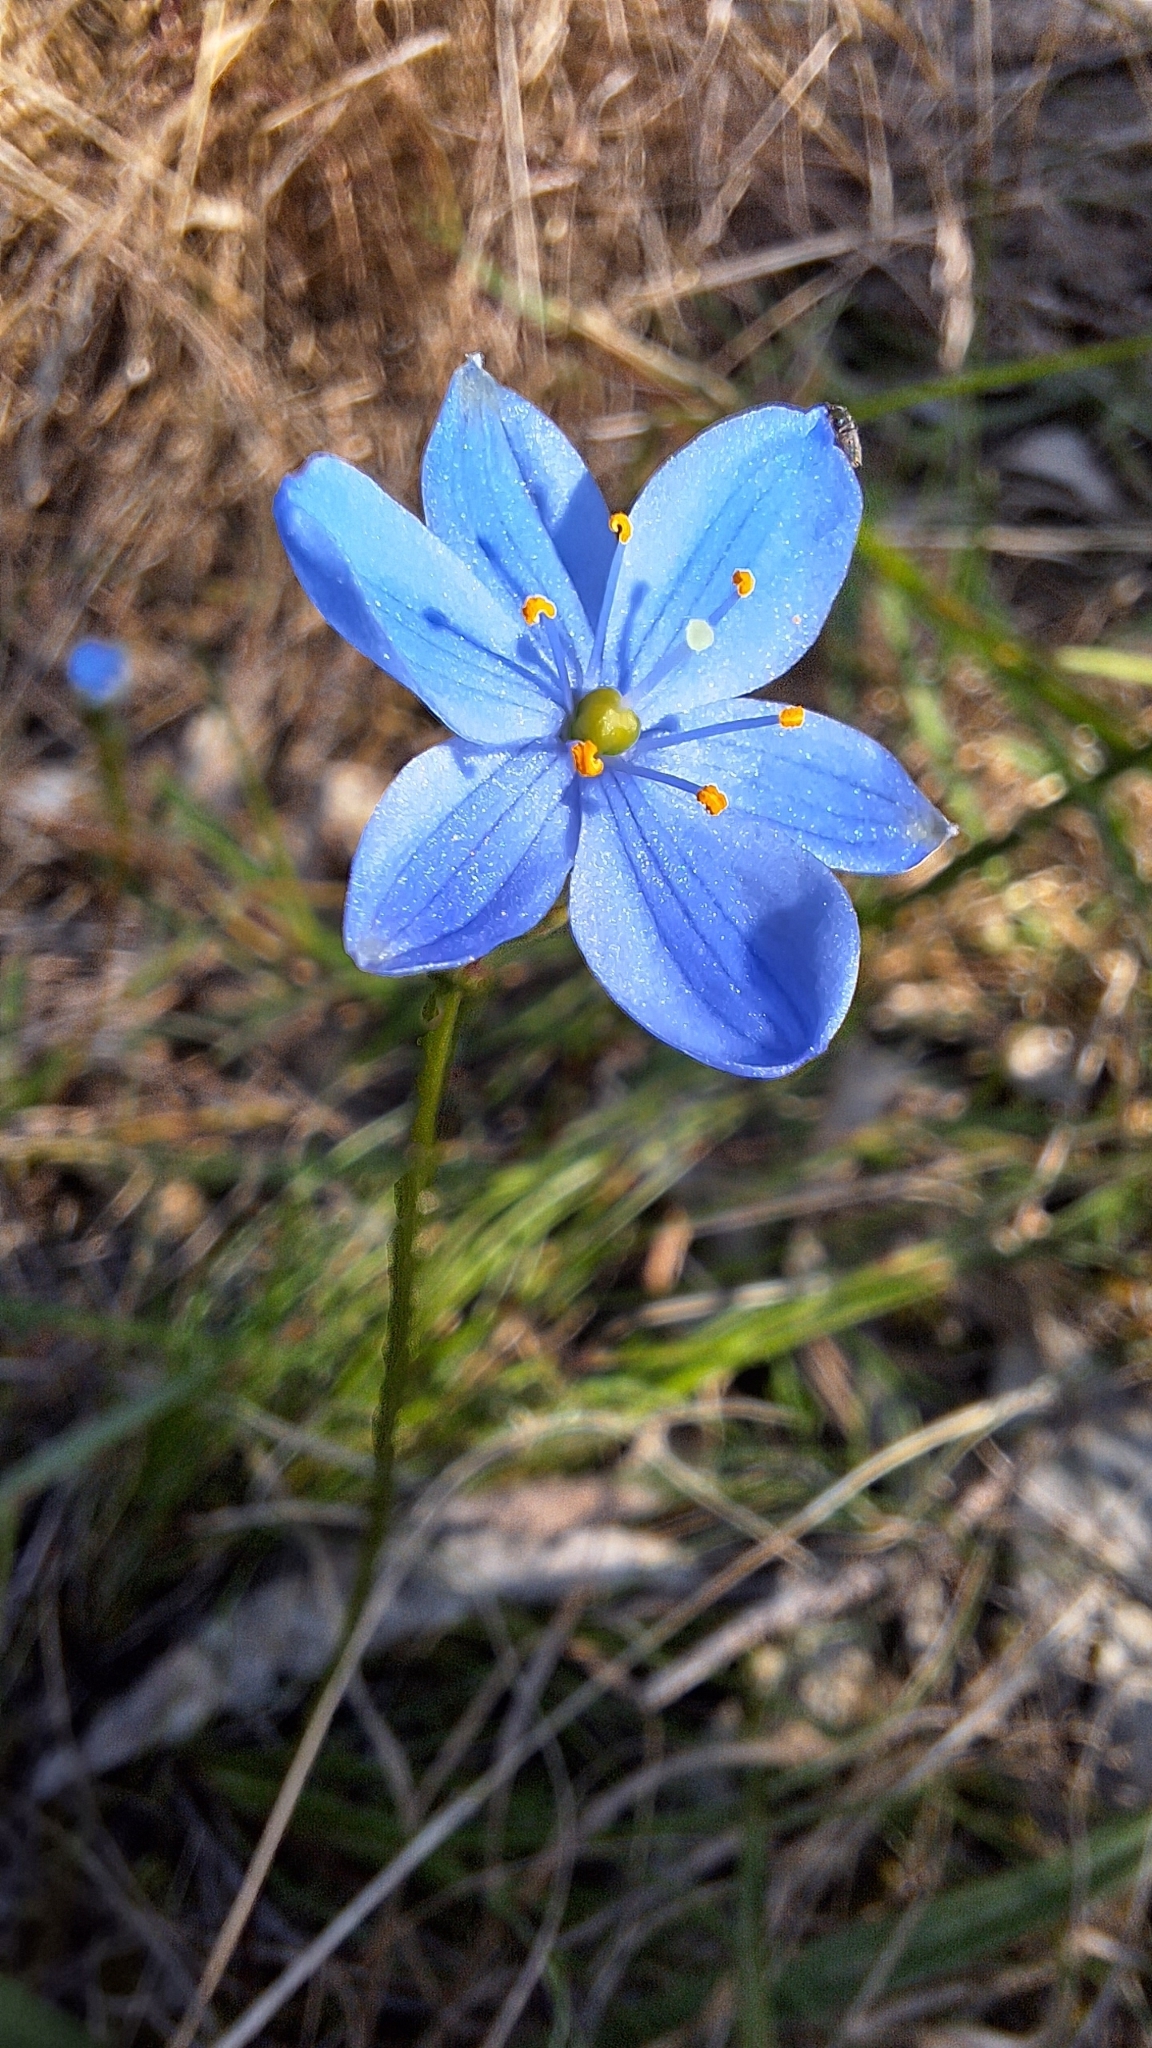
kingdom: Plantae
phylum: Tracheophyta
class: Liliopsida
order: Asparagales
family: Asphodelaceae
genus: Chamaescilla
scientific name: Chamaescilla corymbosa
